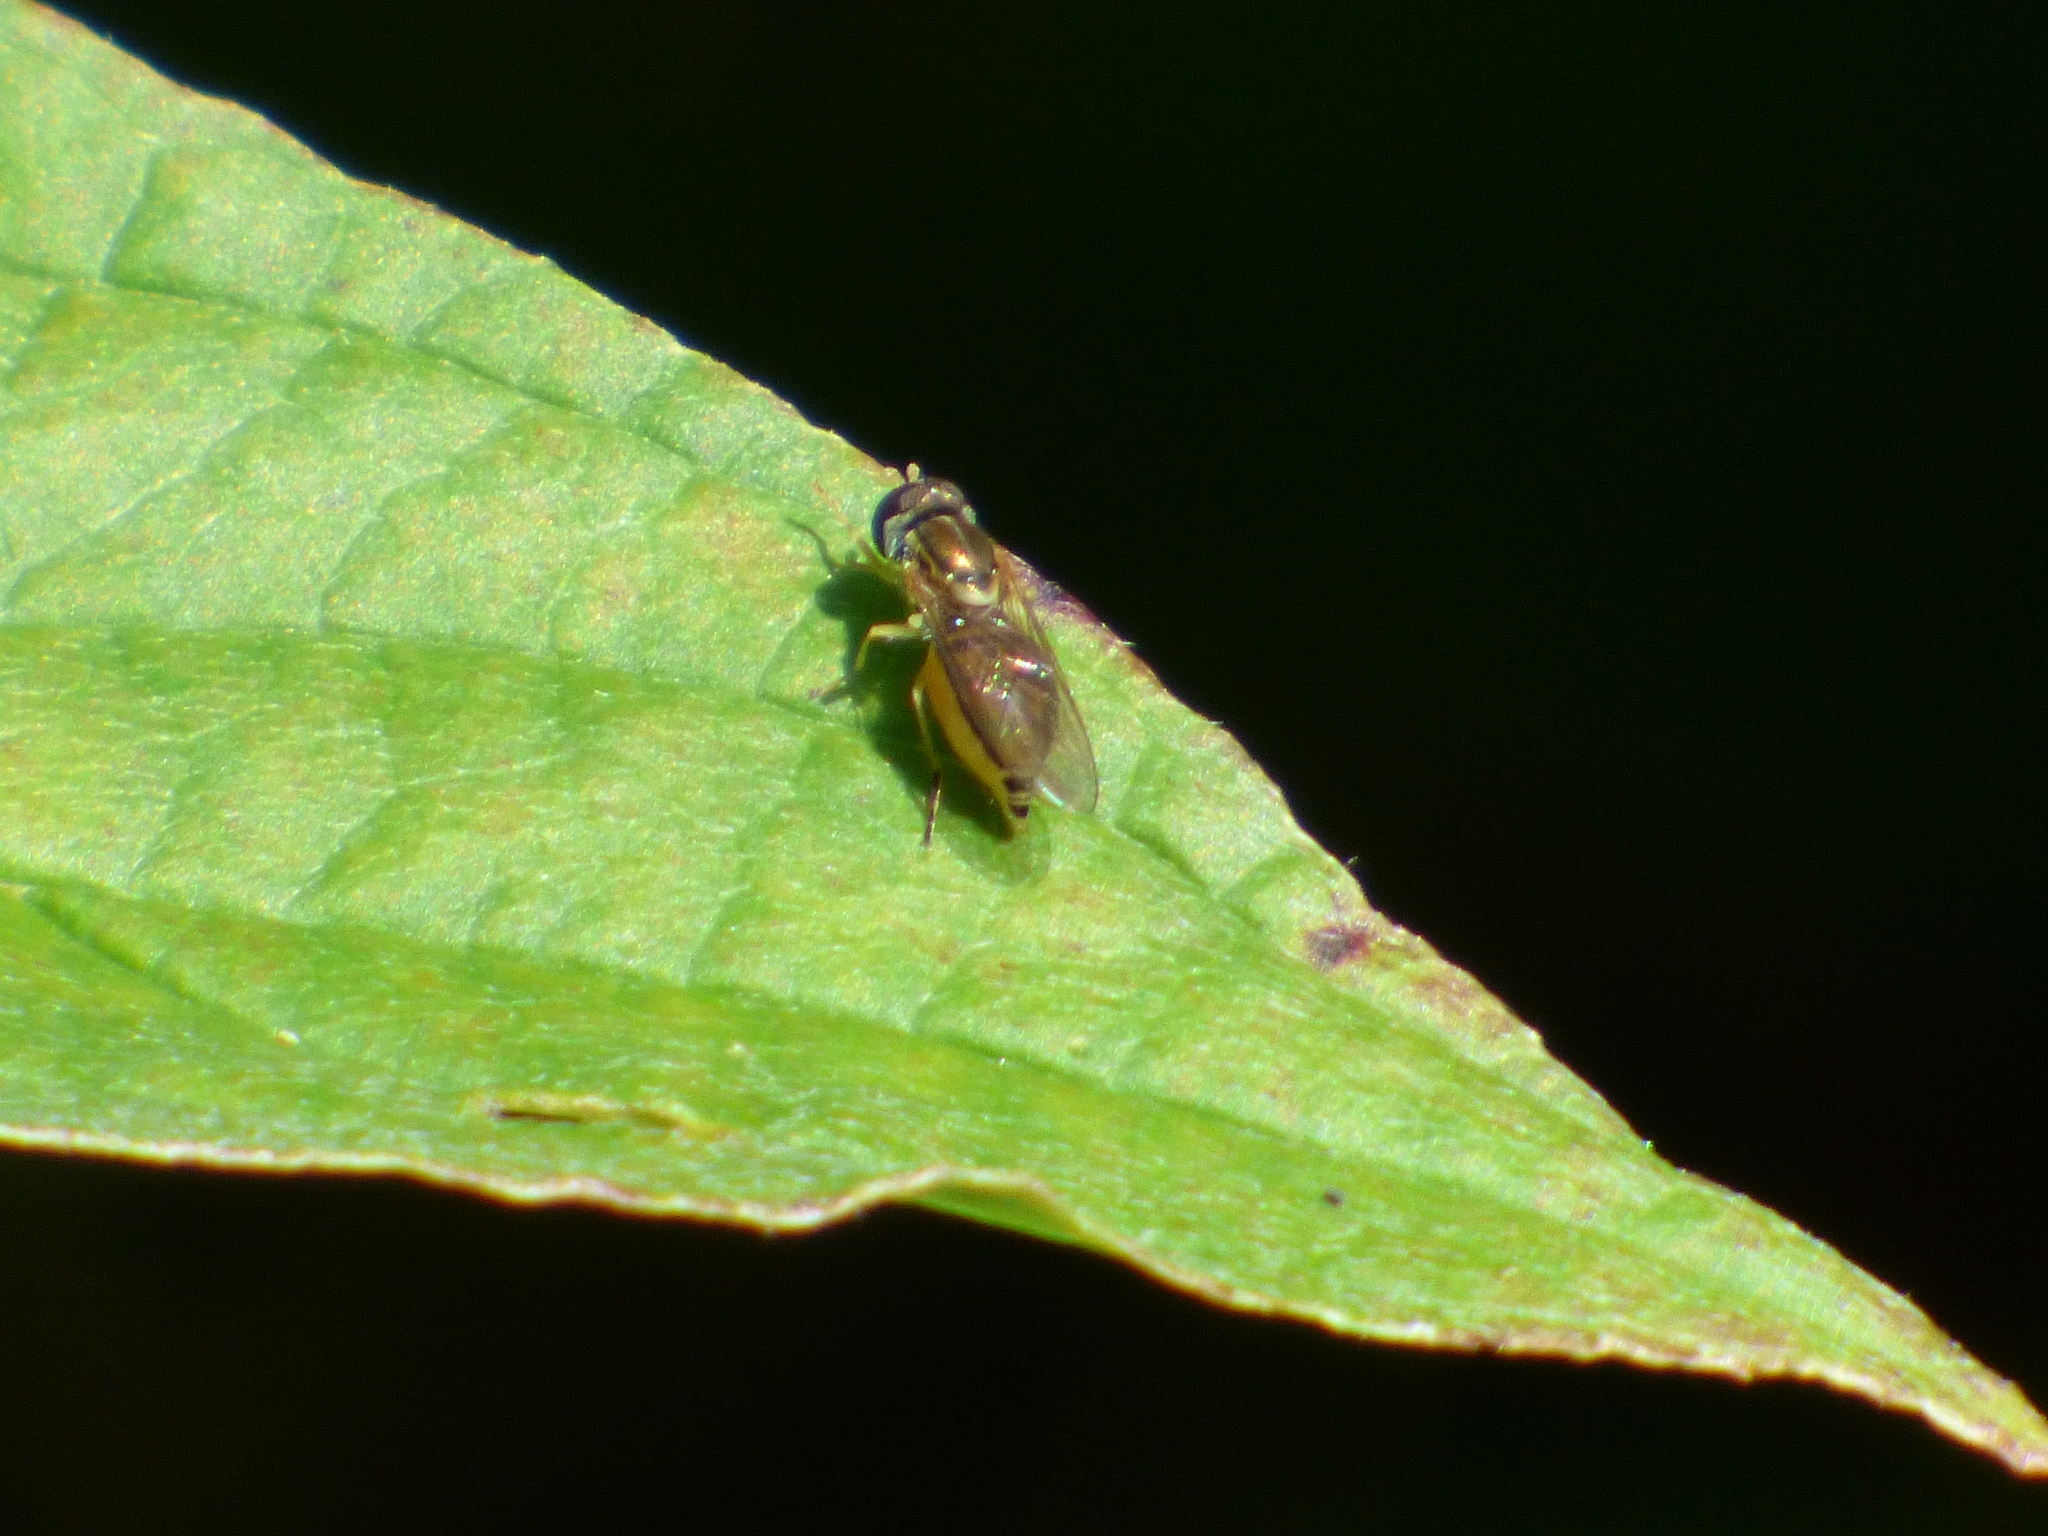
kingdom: Animalia
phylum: Arthropoda
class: Insecta
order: Diptera
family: Syrphidae
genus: Toxomerus
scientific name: Toxomerus marginatus
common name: Syrphid fly
